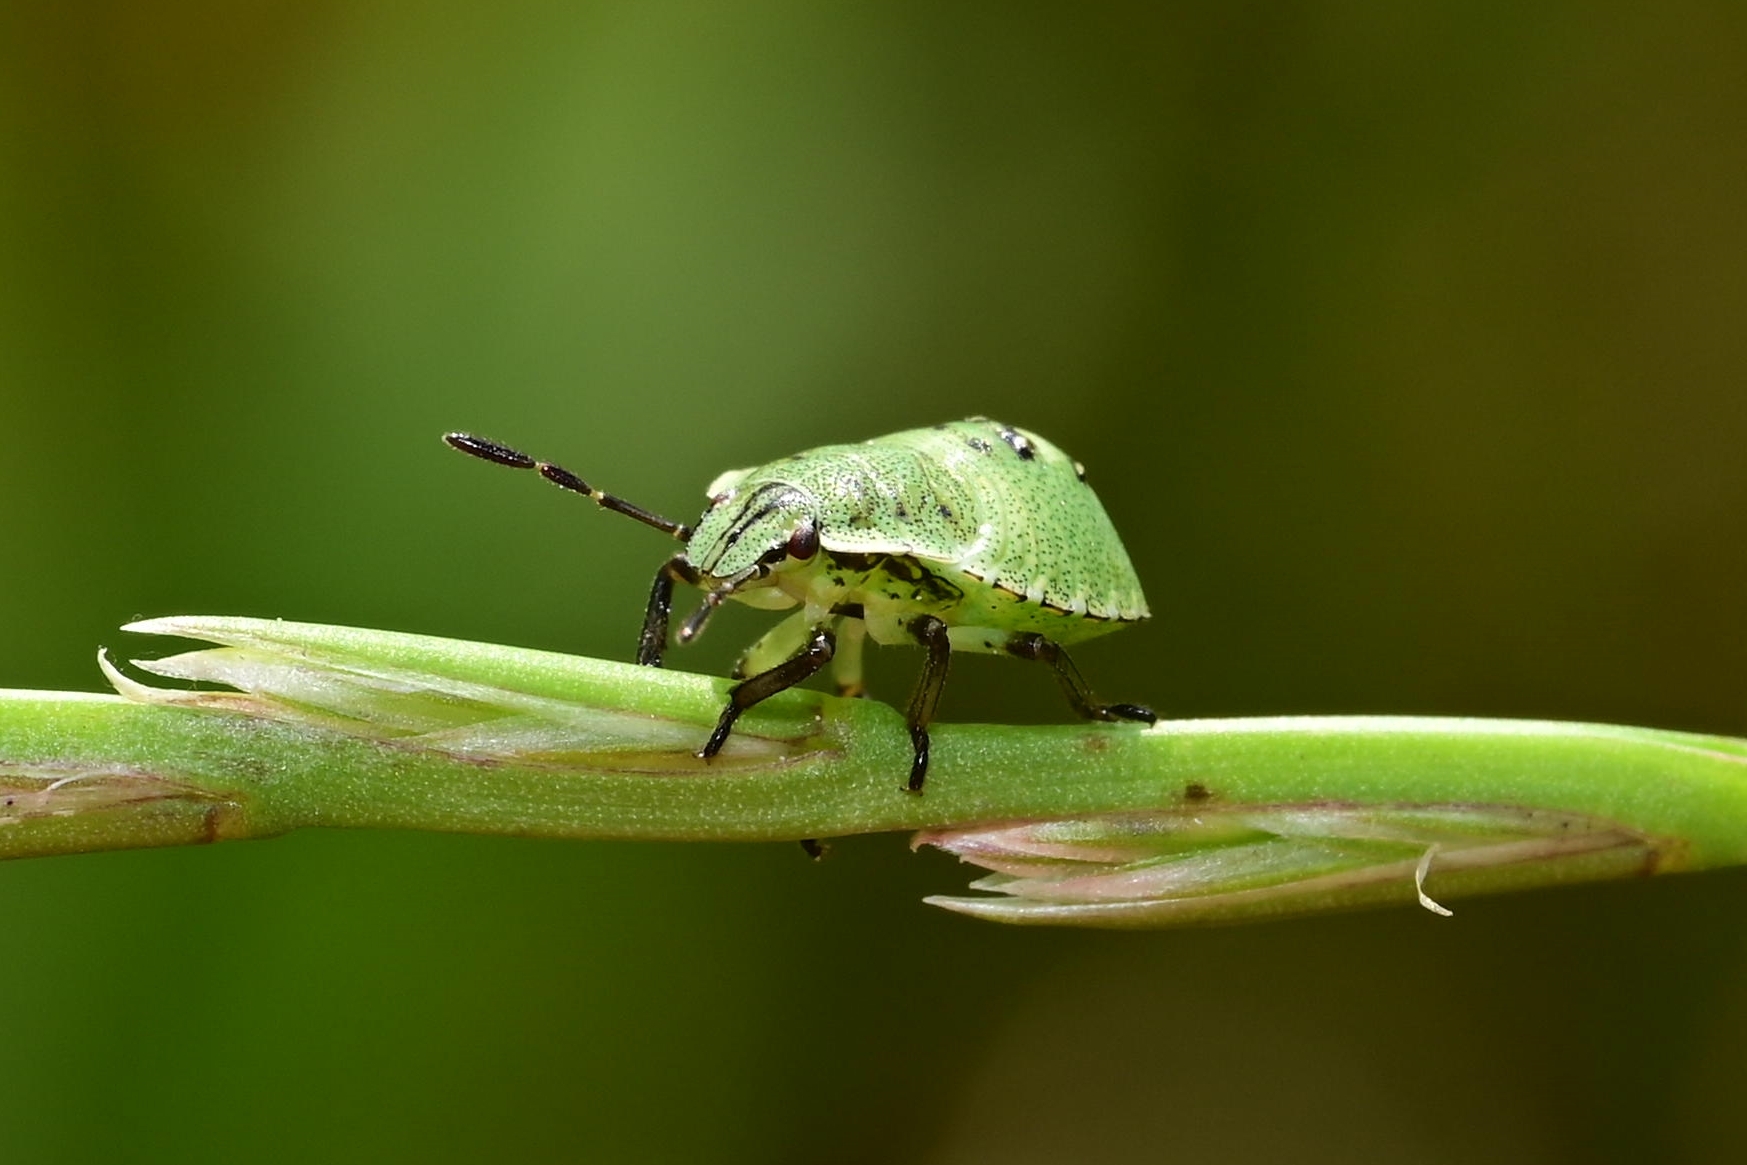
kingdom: Animalia
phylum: Arthropoda
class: Insecta
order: Hemiptera
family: Pentatomidae
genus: Palomena
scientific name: Palomena prasina
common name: Green shieldbug
